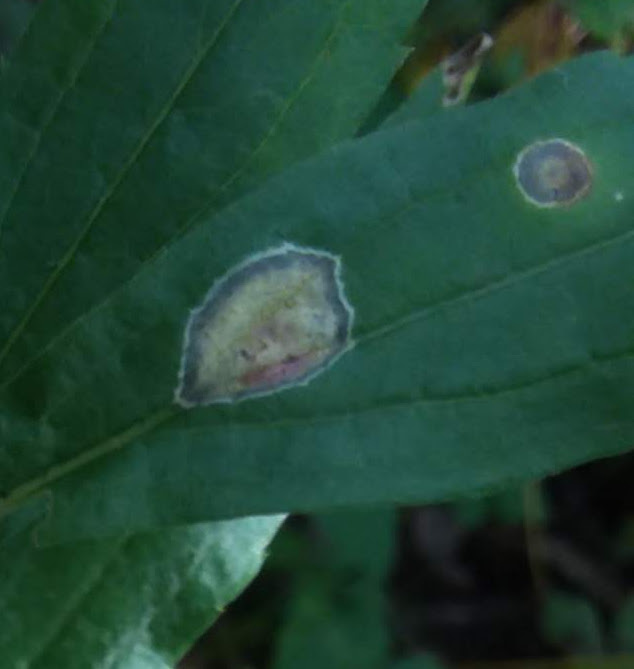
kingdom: Animalia
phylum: Arthropoda
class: Insecta
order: Diptera
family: Cecidomyiidae
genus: Asteromyia
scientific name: Asteromyia carbonifera
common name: Carbonifera goldenrod gall midge
